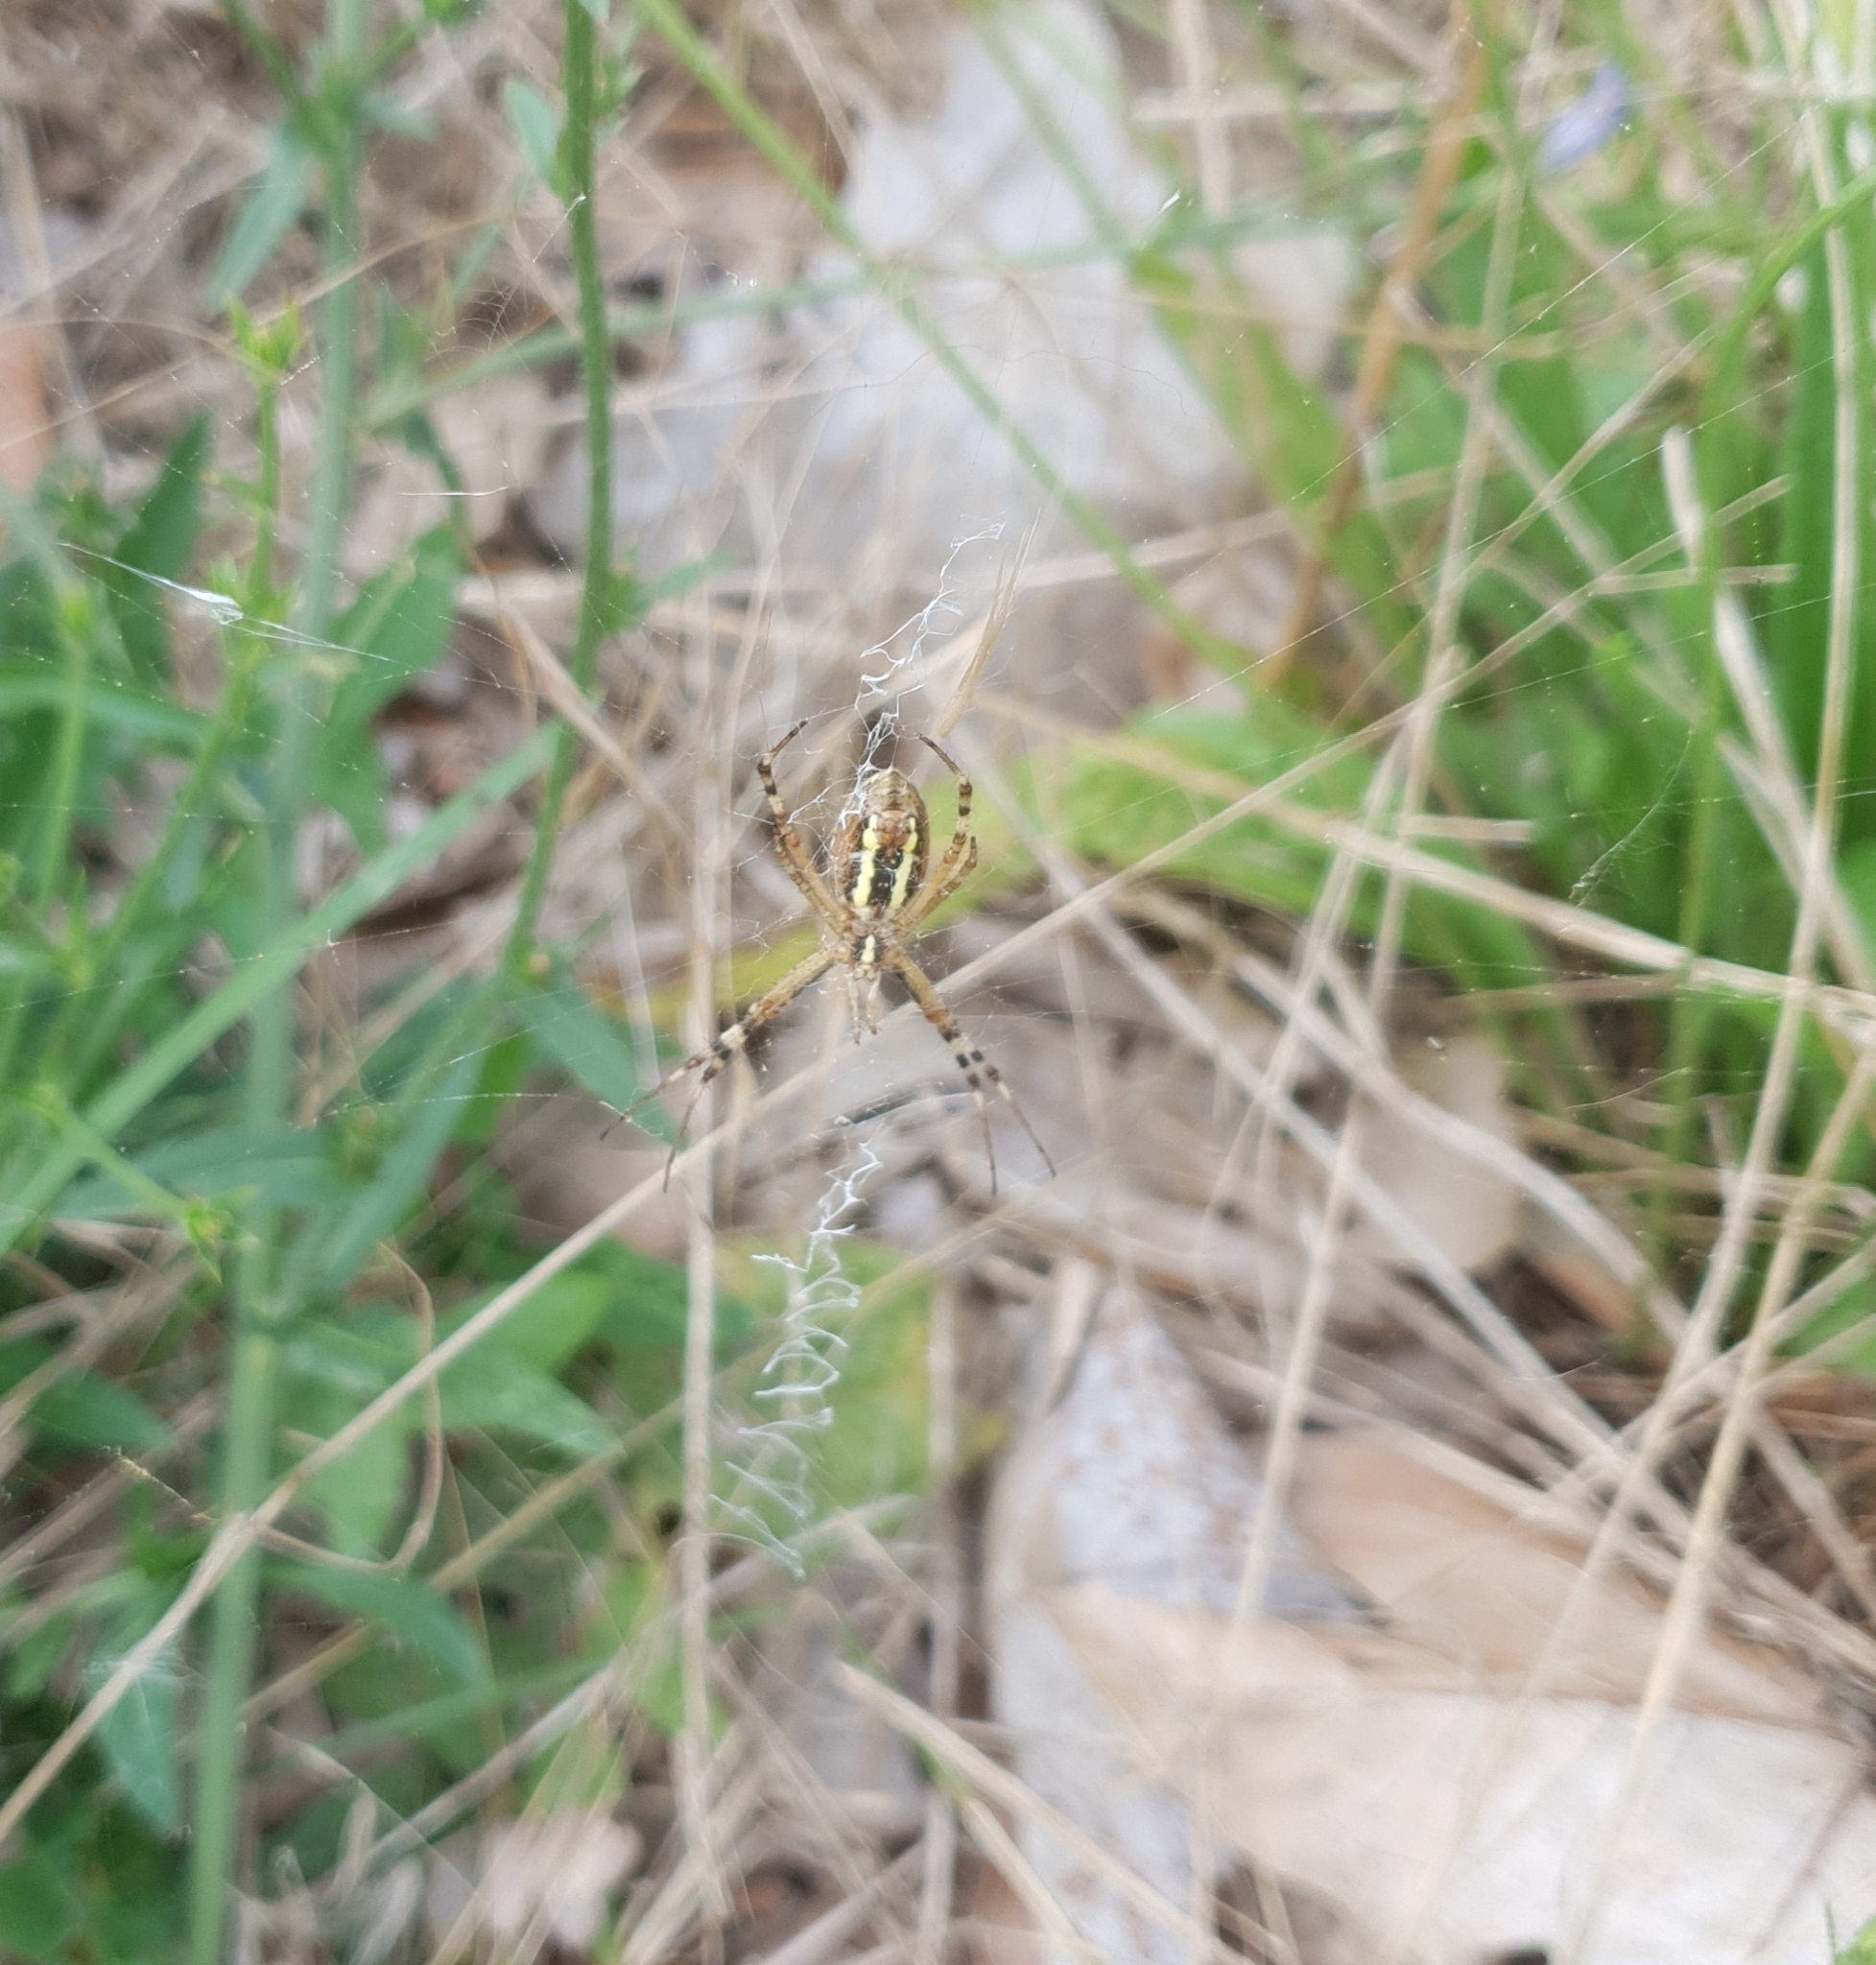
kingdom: Animalia
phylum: Arthropoda
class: Arachnida
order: Araneae
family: Araneidae
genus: Argiope
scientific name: Argiope bruennichi
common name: Wasp spider
